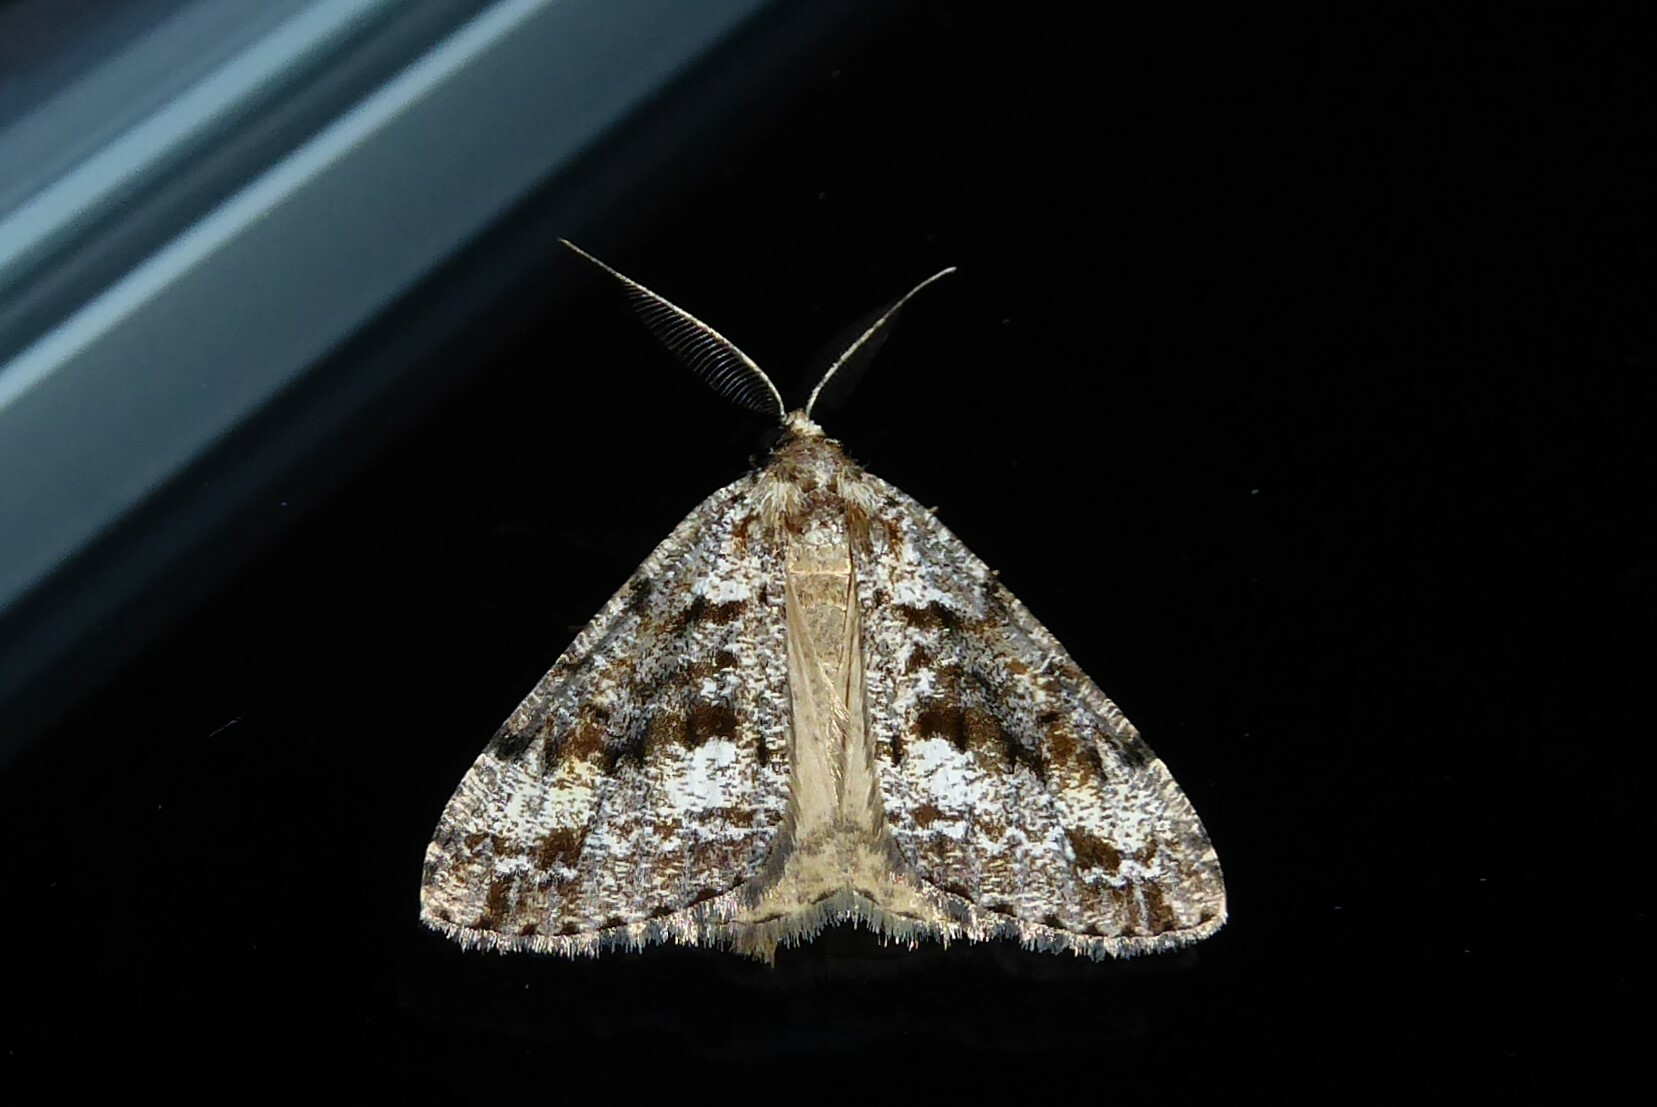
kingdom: Animalia
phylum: Arthropoda
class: Insecta
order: Lepidoptera
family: Geometridae
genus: Pseudocoremia
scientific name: Pseudocoremia leucelaea
